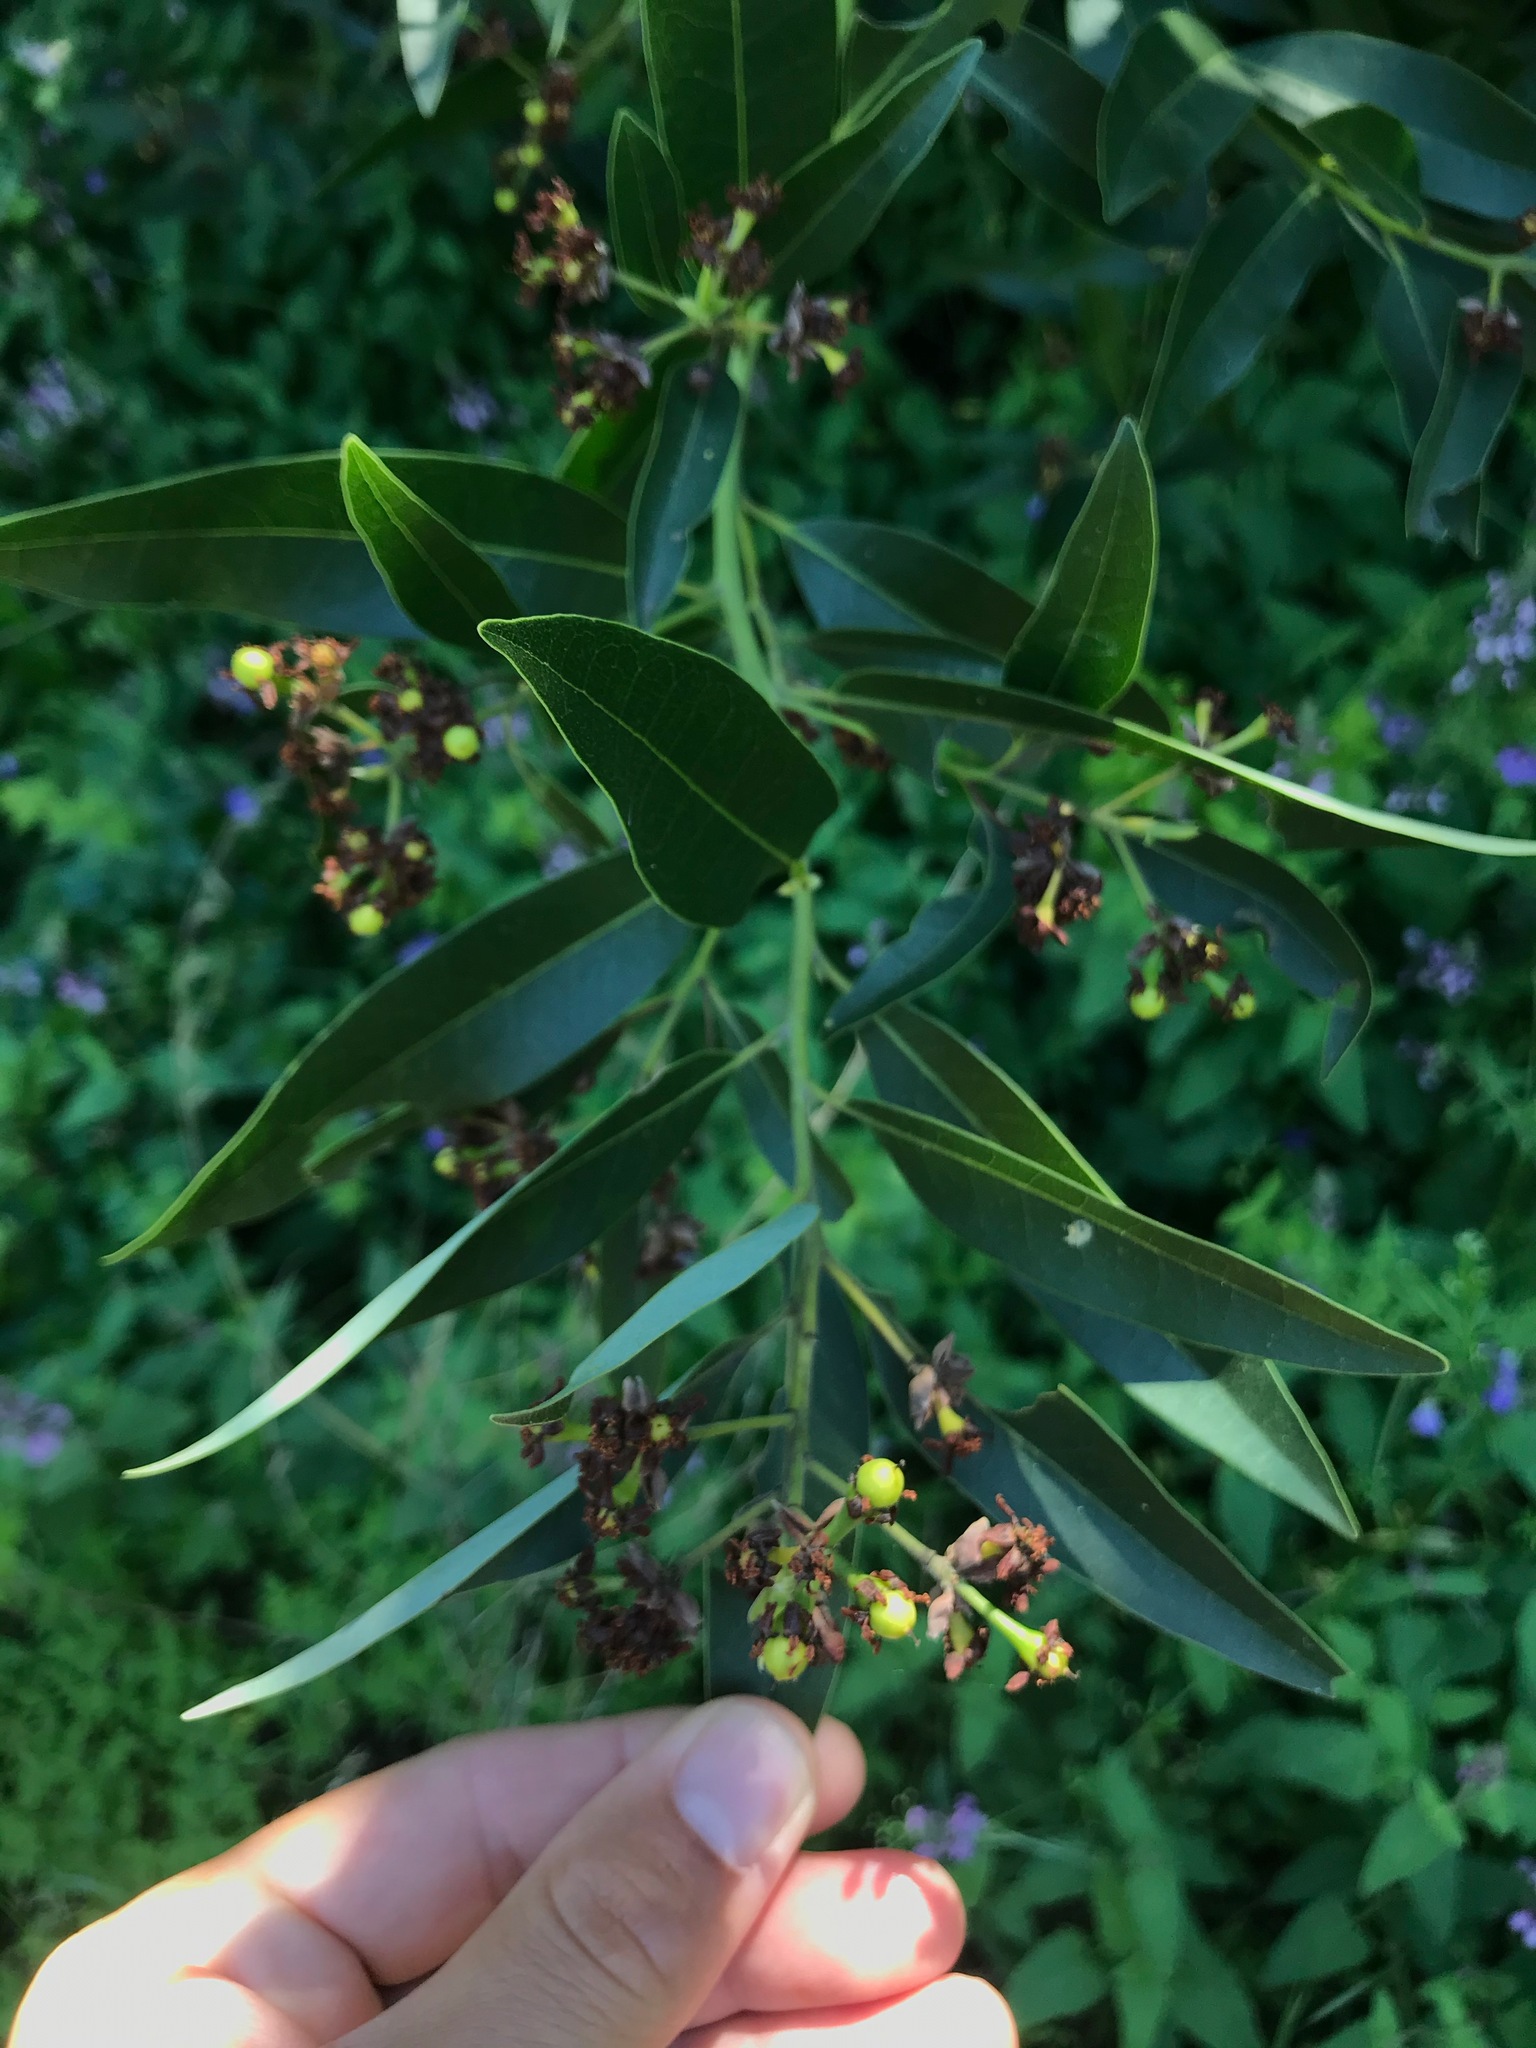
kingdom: Plantae
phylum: Tracheophyta
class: Magnoliopsida
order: Laurales
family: Lauraceae
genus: Umbellularia
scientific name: Umbellularia californica
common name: California bay
